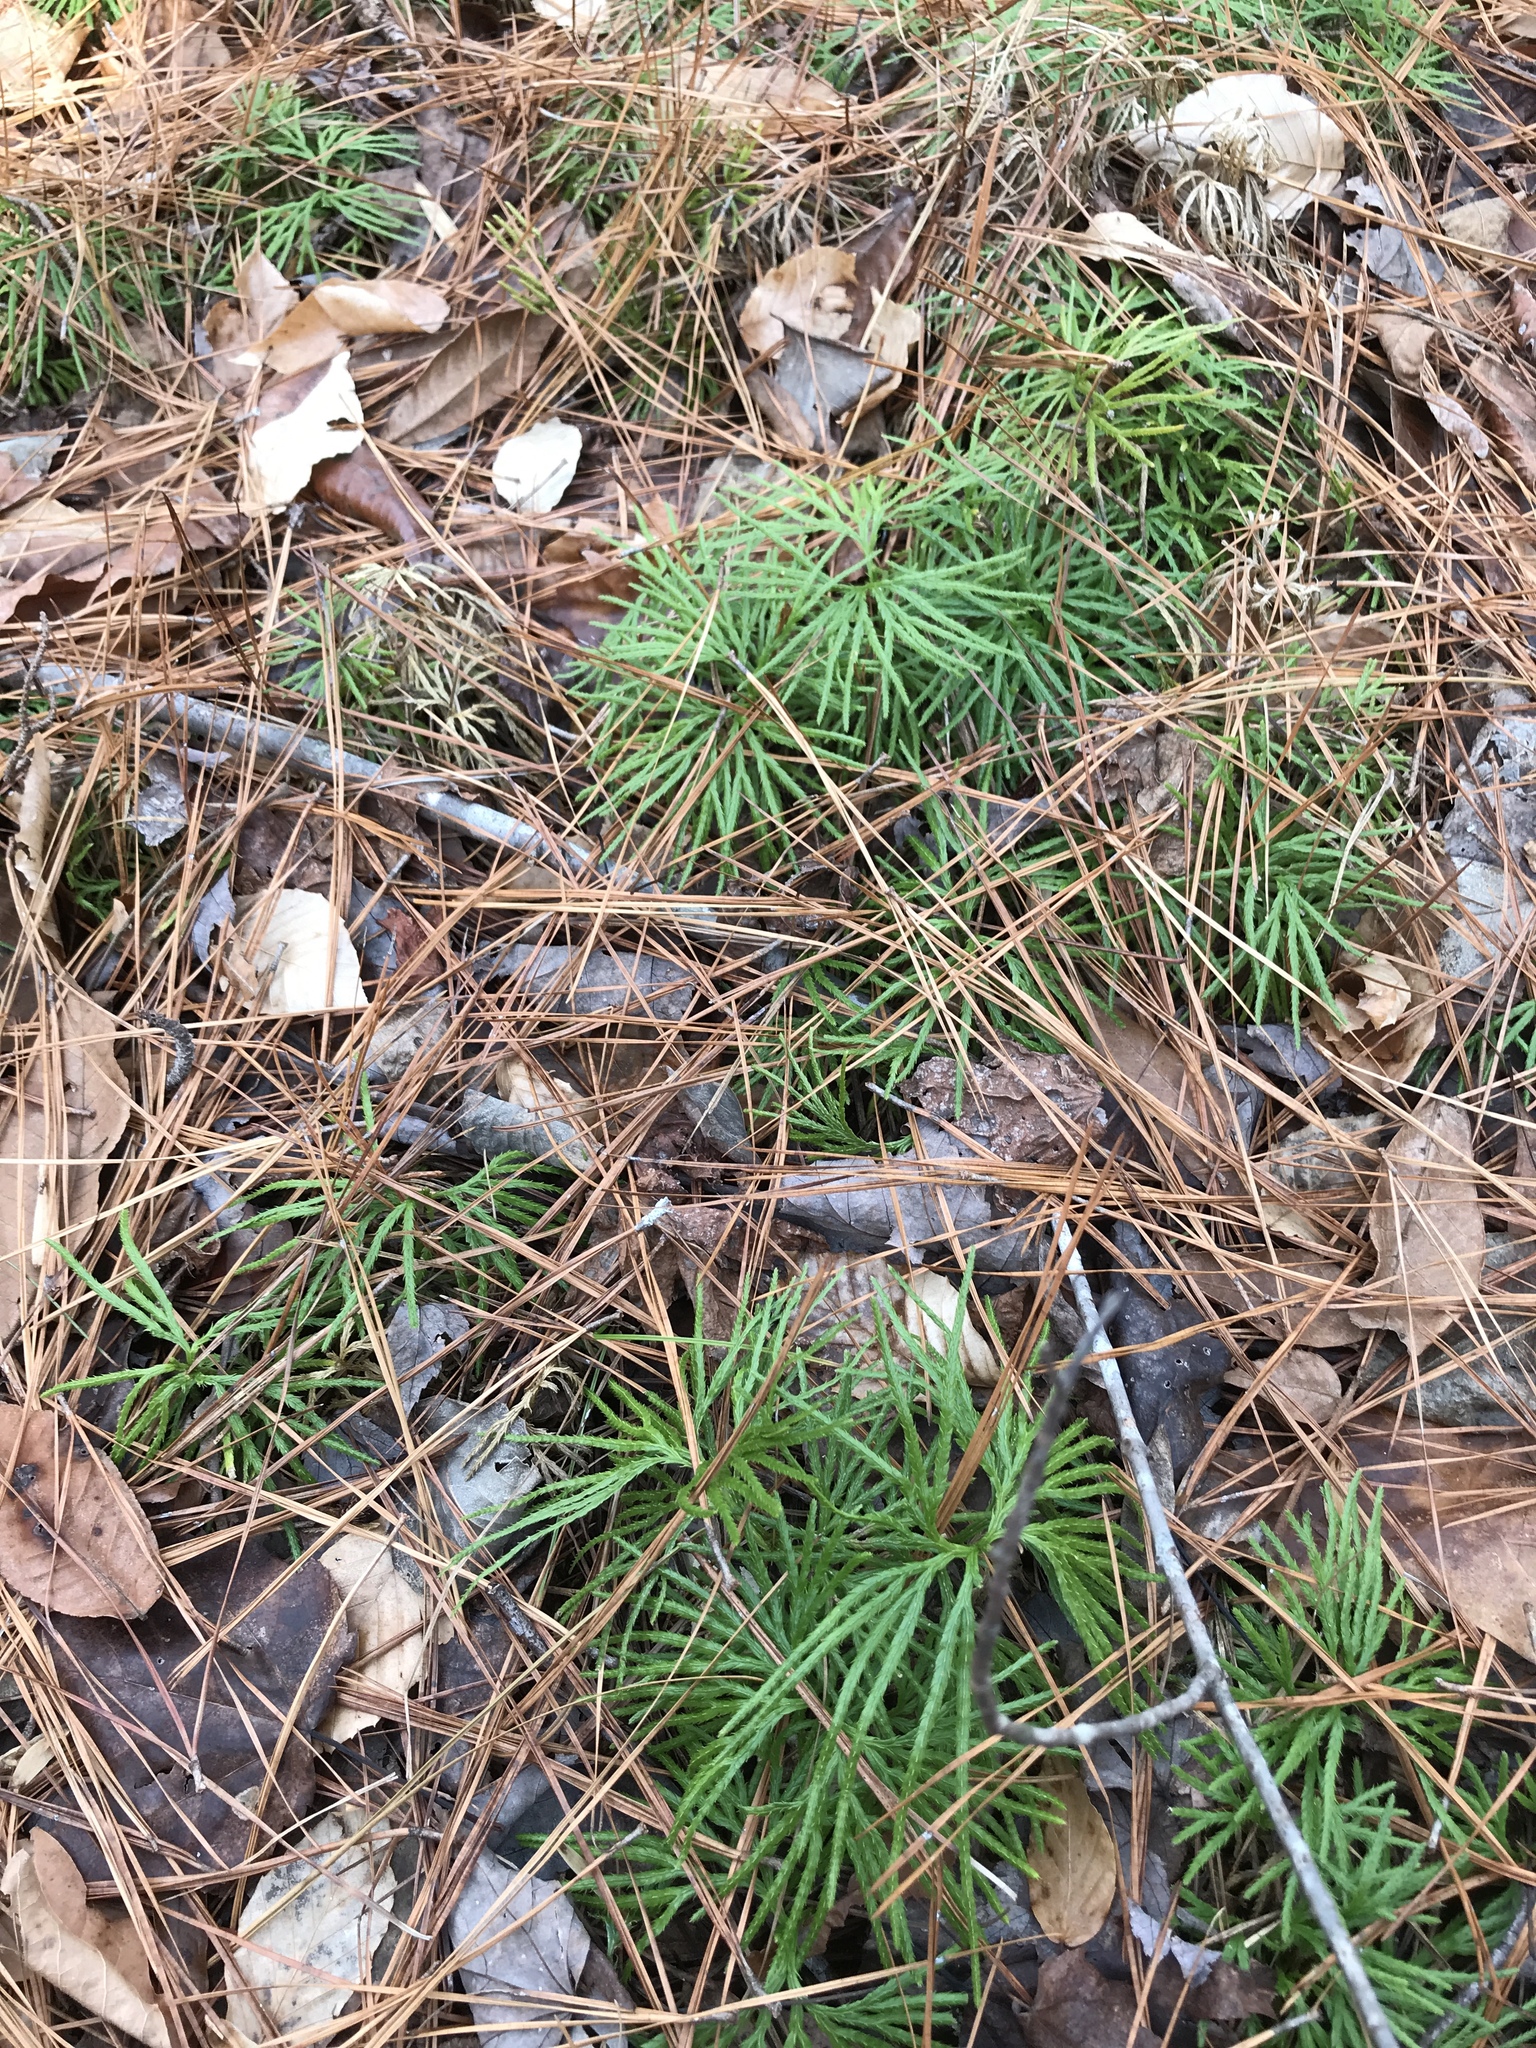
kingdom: Plantae
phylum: Tracheophyta
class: Lycopodiopsida
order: Lycopodiales
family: Lycopodiaceae
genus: Diphasiastrum
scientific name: Diphasiastrum digitatum
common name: Southern running-pine
